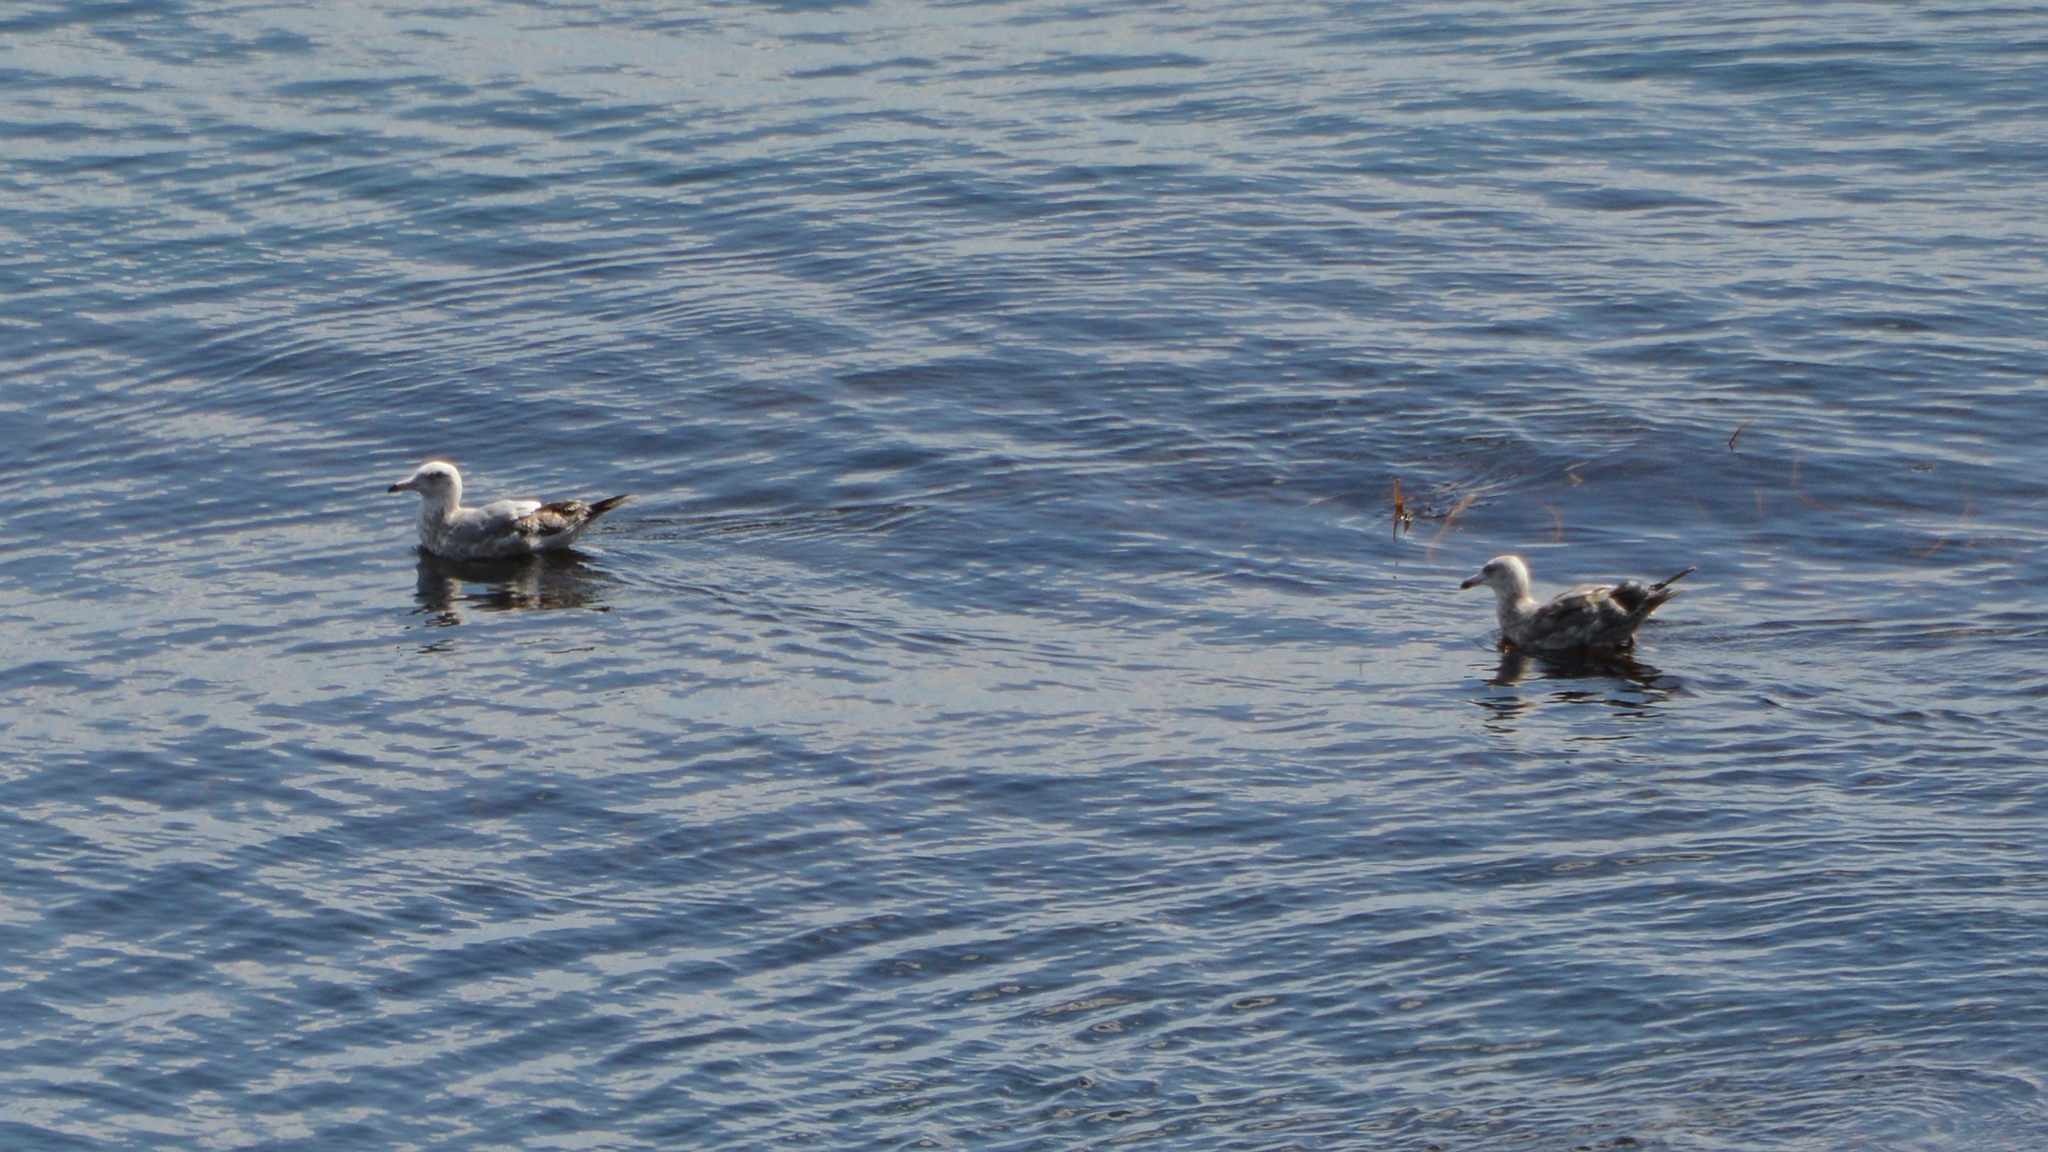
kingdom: Animalia
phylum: Chordata
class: Aves
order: Charadriiformes
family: Laridae
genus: Larus
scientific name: Larus delawarensis
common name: Ring-billed gull
